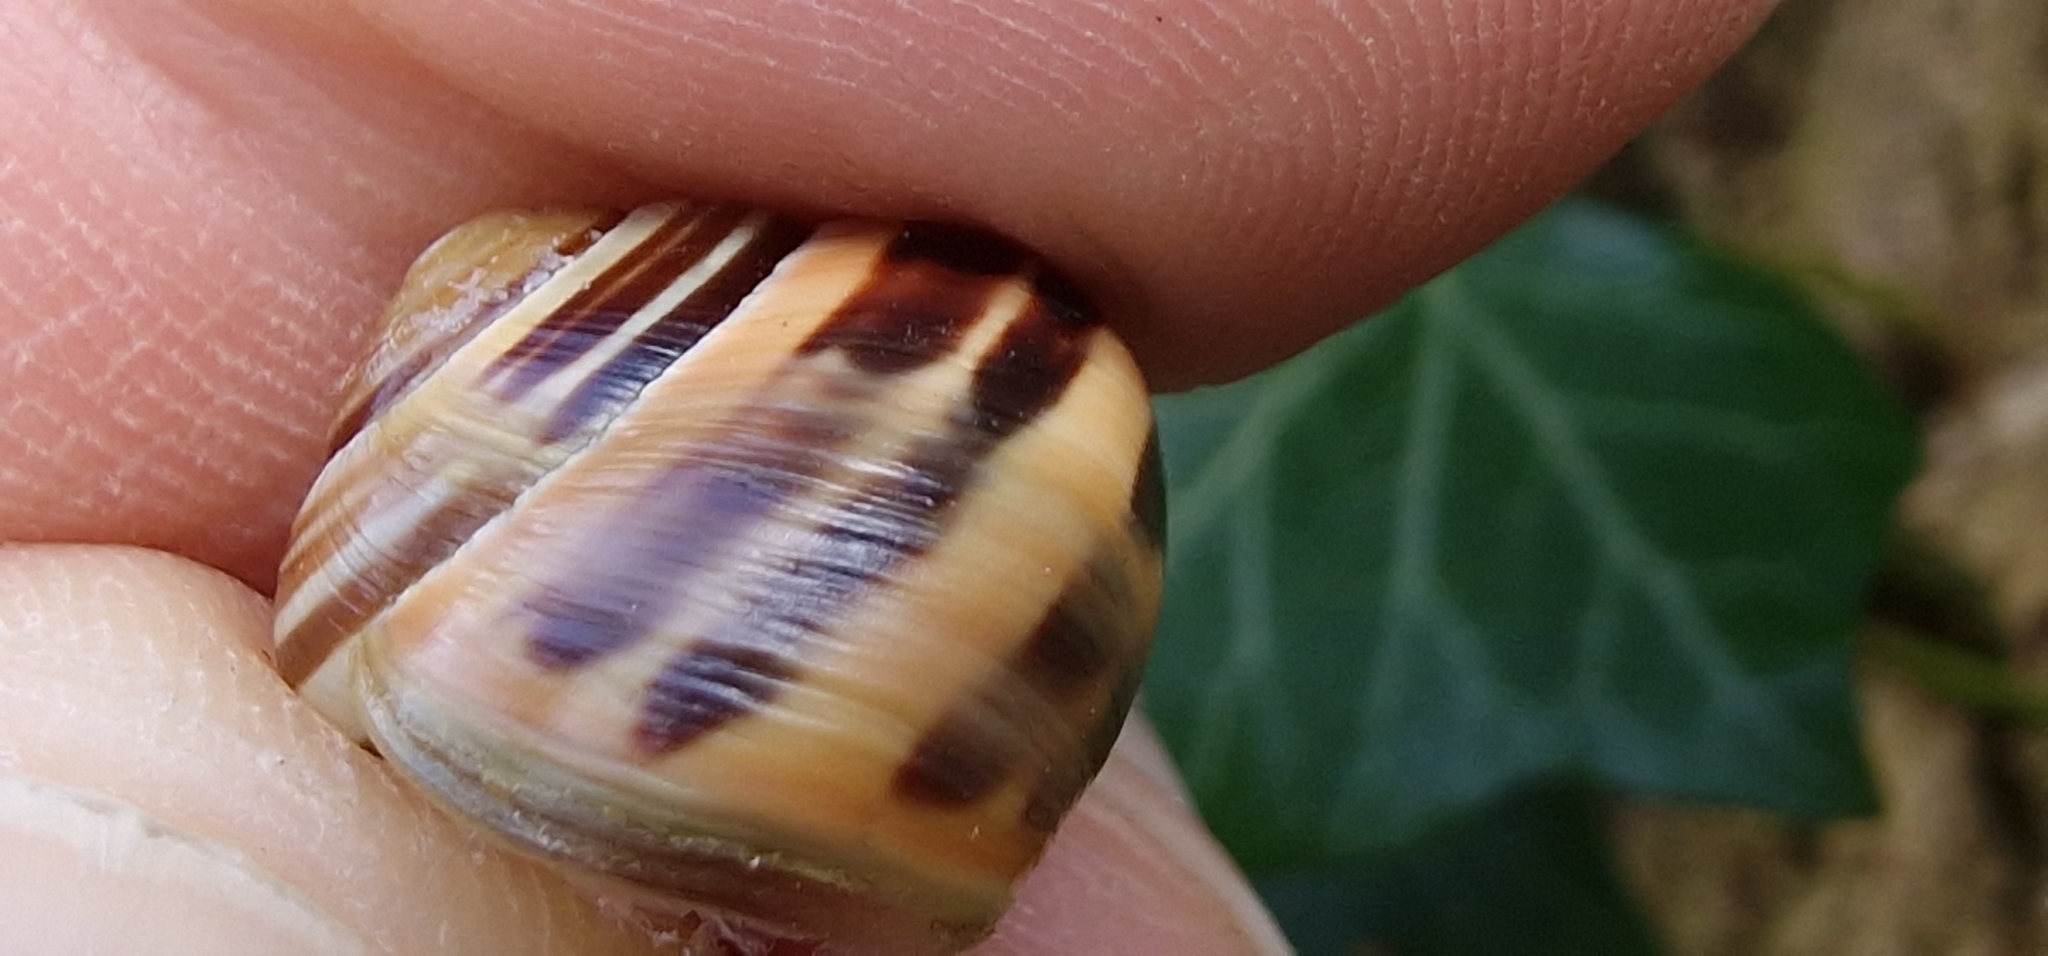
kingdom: Animalia
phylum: Mollusca
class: Gastropoda
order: Stylommatophora
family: Helicidae
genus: Cepaea
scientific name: Cepaea nemoralis
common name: Grovesnail
